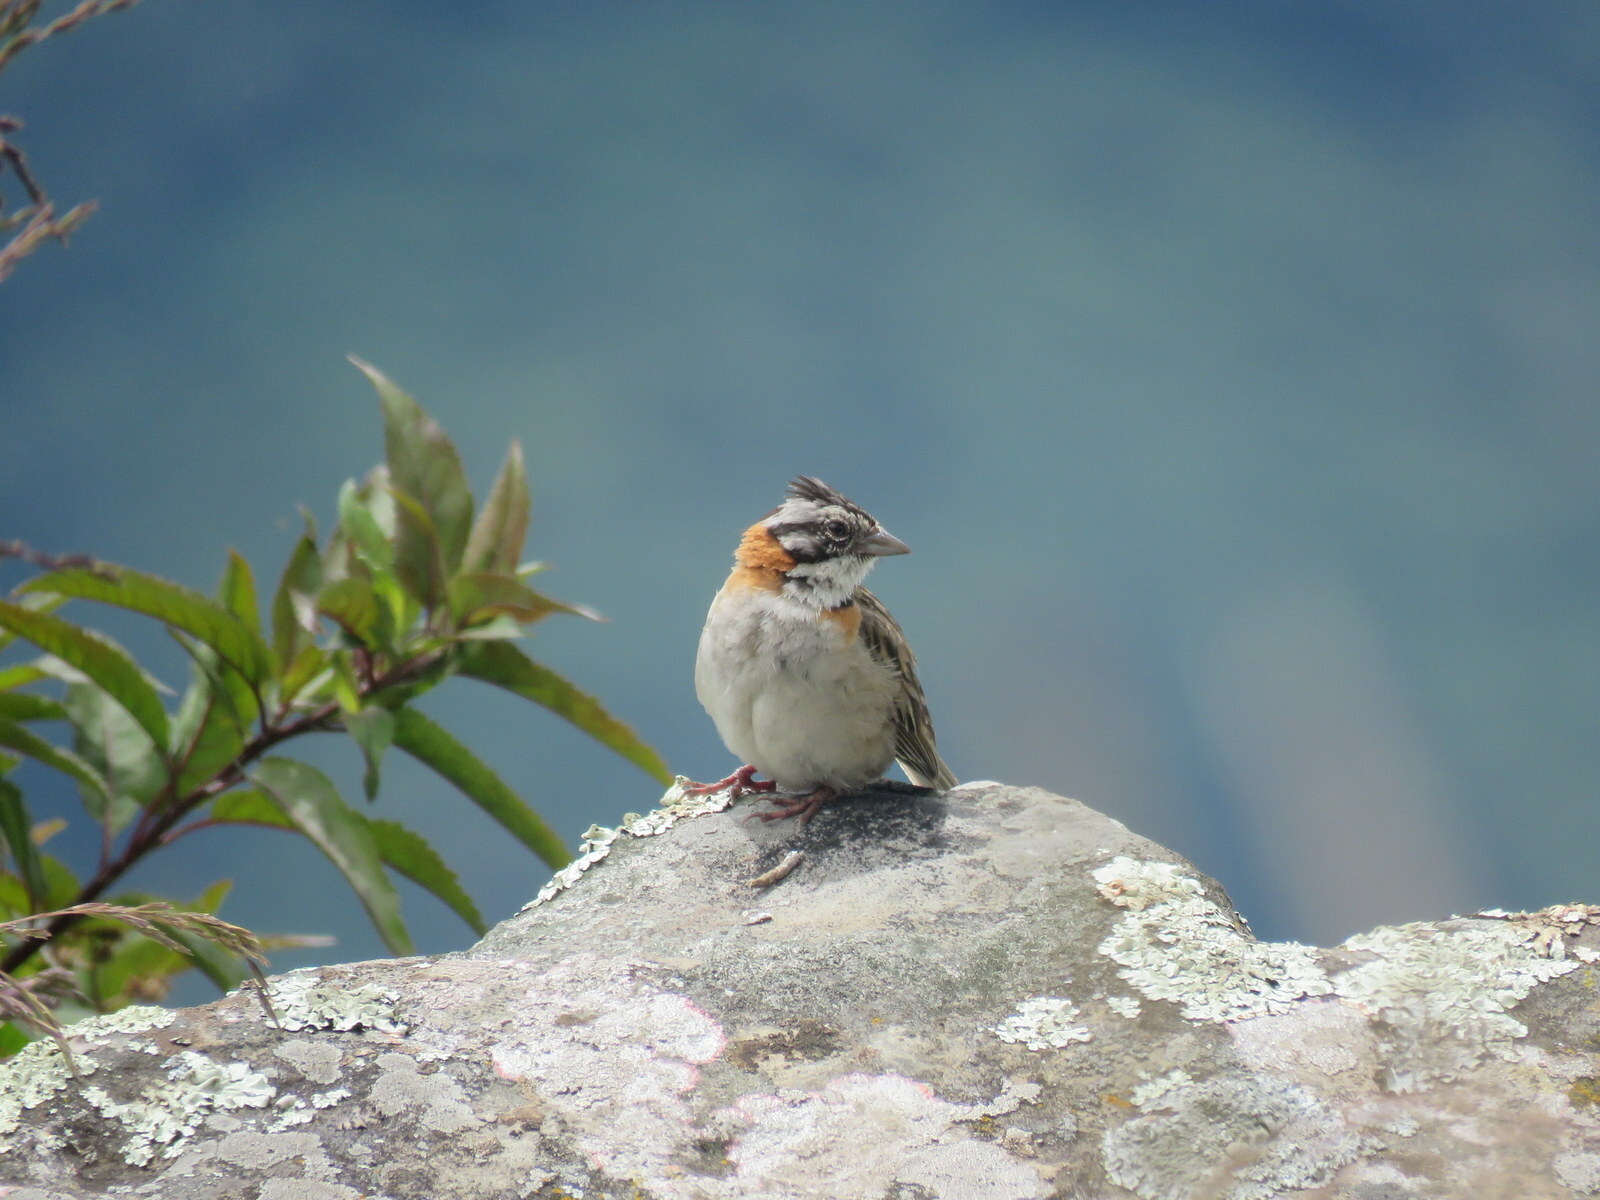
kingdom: Animalia
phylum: Chordata
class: Aves
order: Passeriformes
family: Passerellidae
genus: Zonotrichia
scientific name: Zonotrichia capensis
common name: Rufous-collared sparrow
